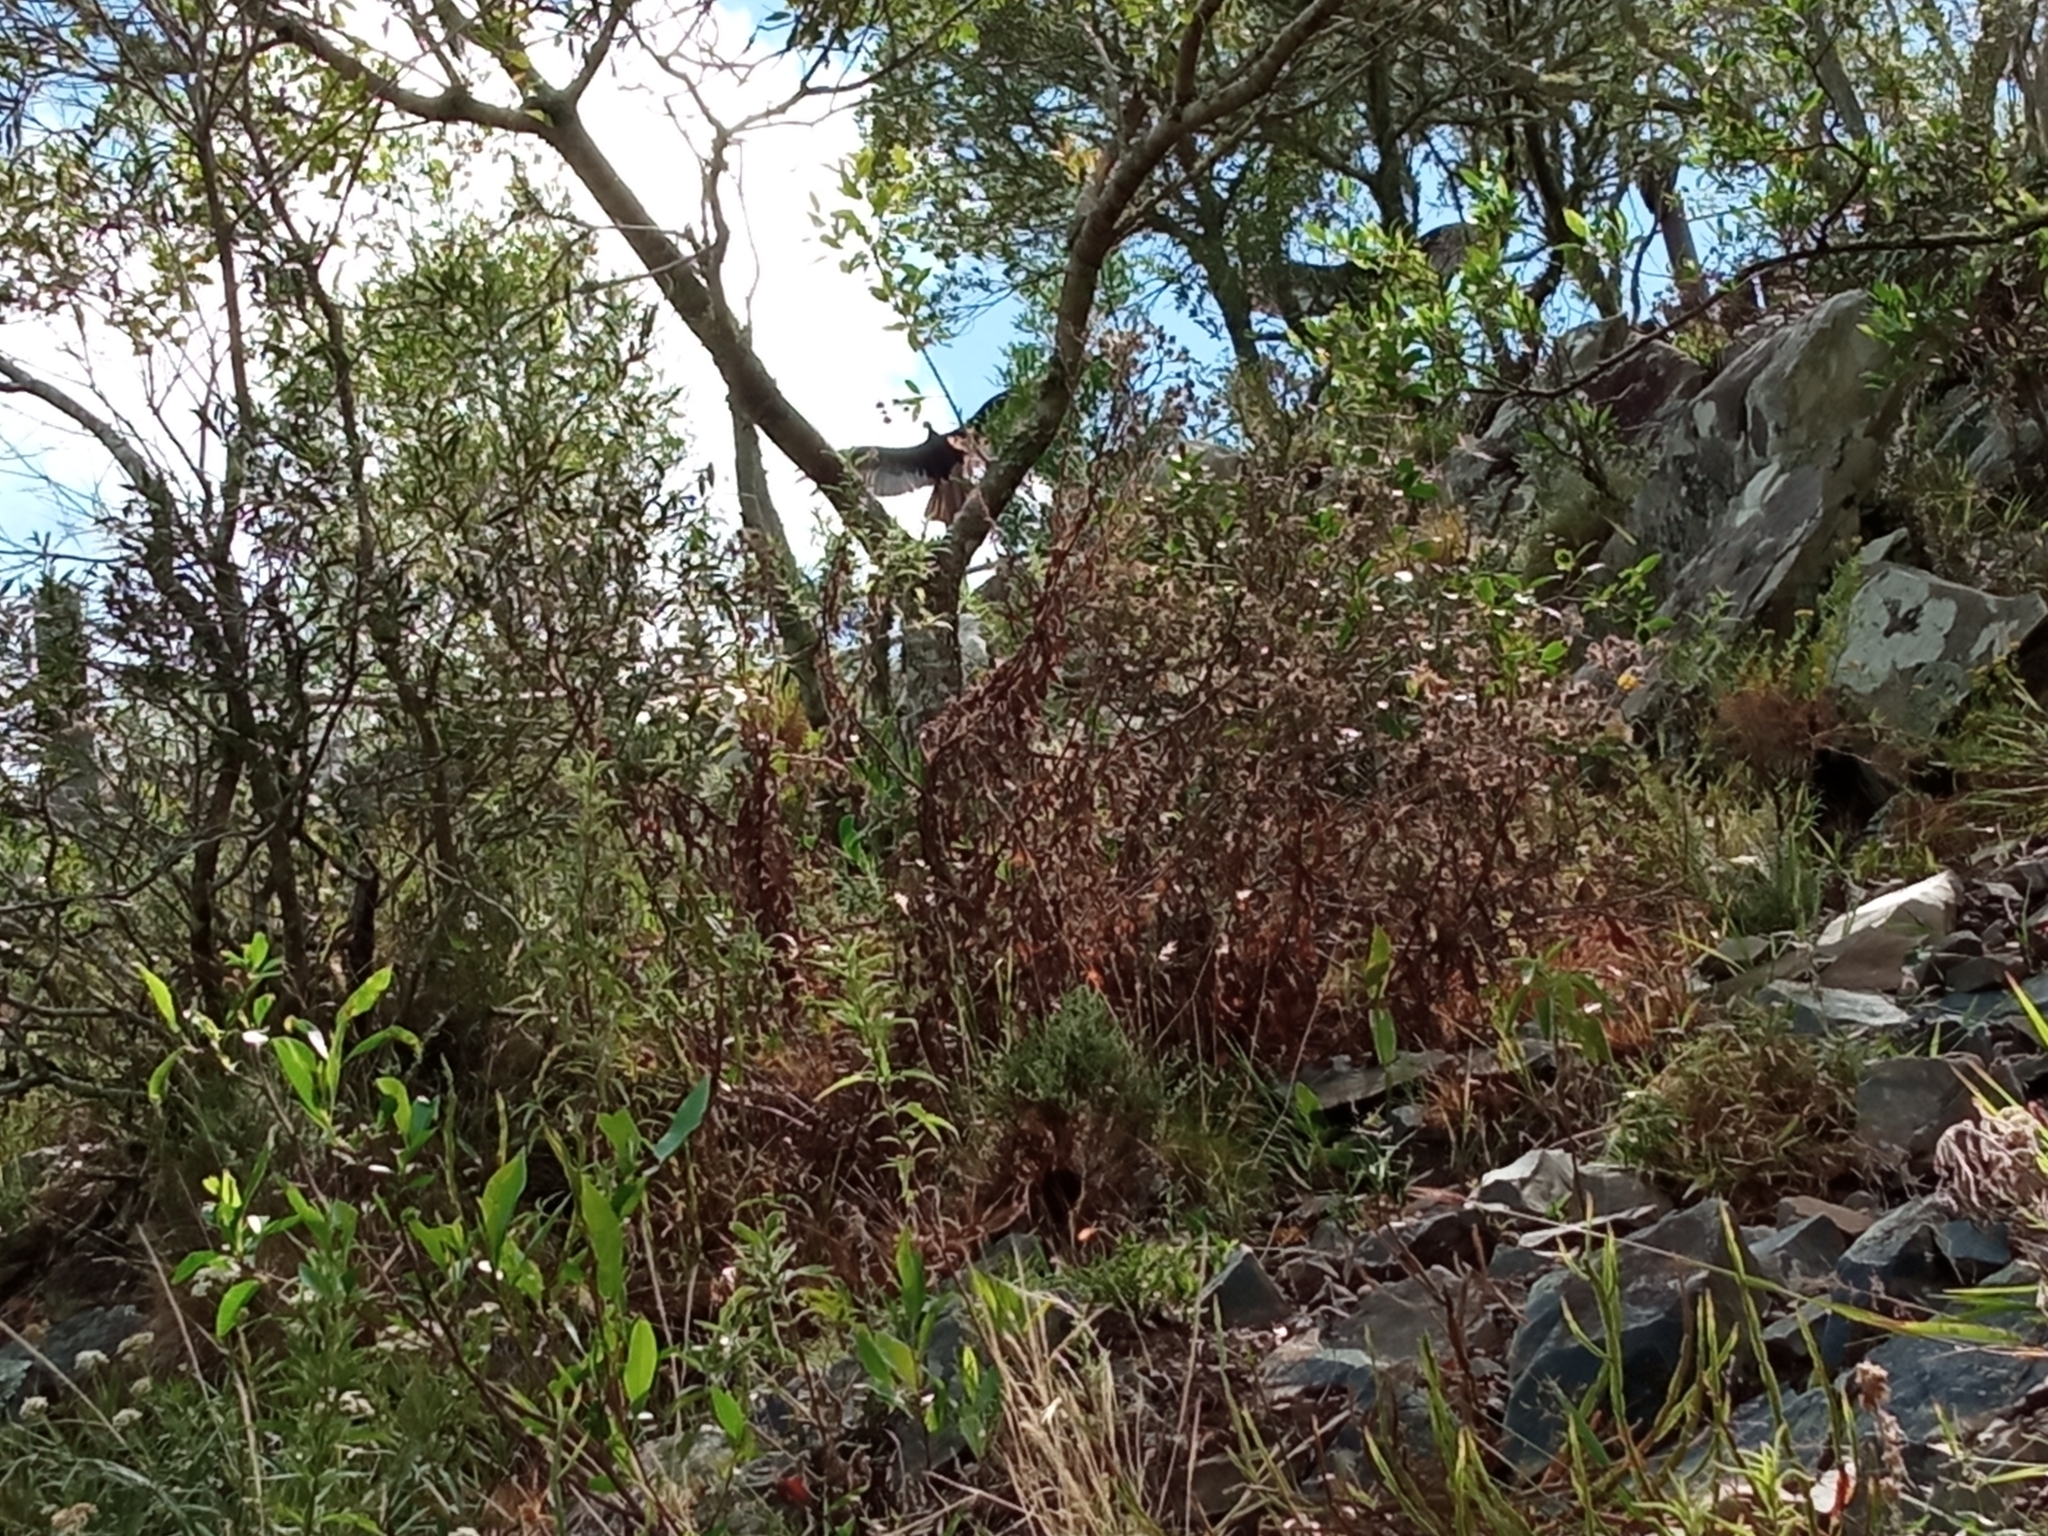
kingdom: Animalia
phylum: Chordata
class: Aves
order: Accipitriformes
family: Cathartidae
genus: Cathartes
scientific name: Cathartes aura
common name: Turkey vulture
